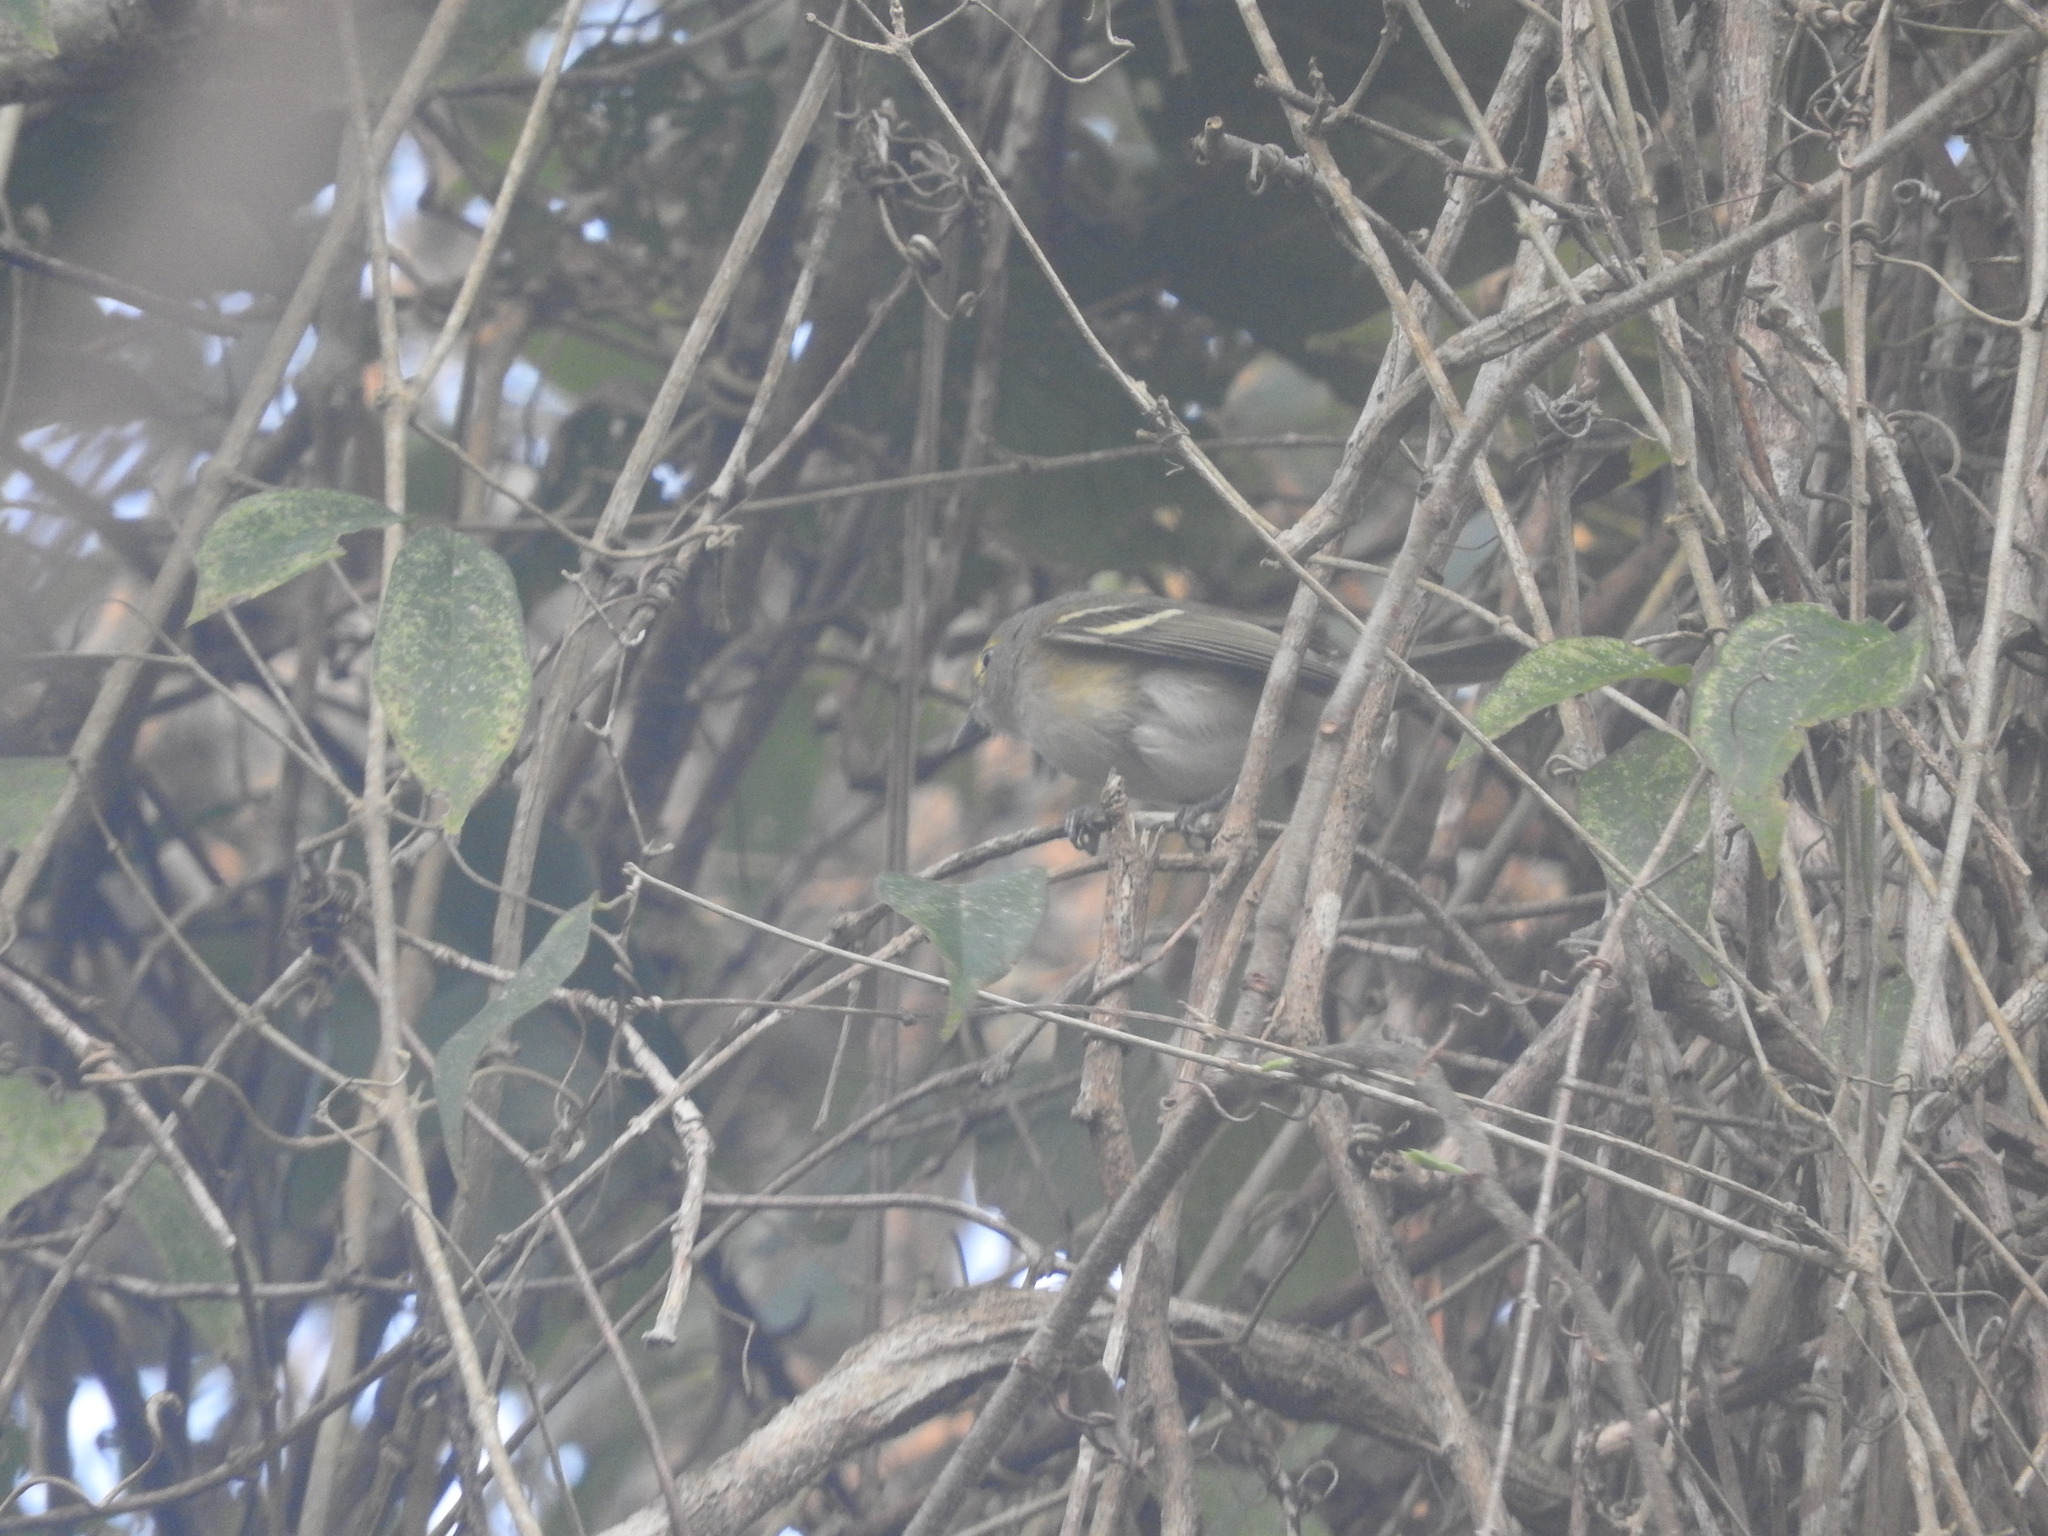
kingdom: Animalia
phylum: Chordata
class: Aves
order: Passeriformes
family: Vireonidae
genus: Vireo
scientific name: Vireo griseus
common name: White-eyed vireo
